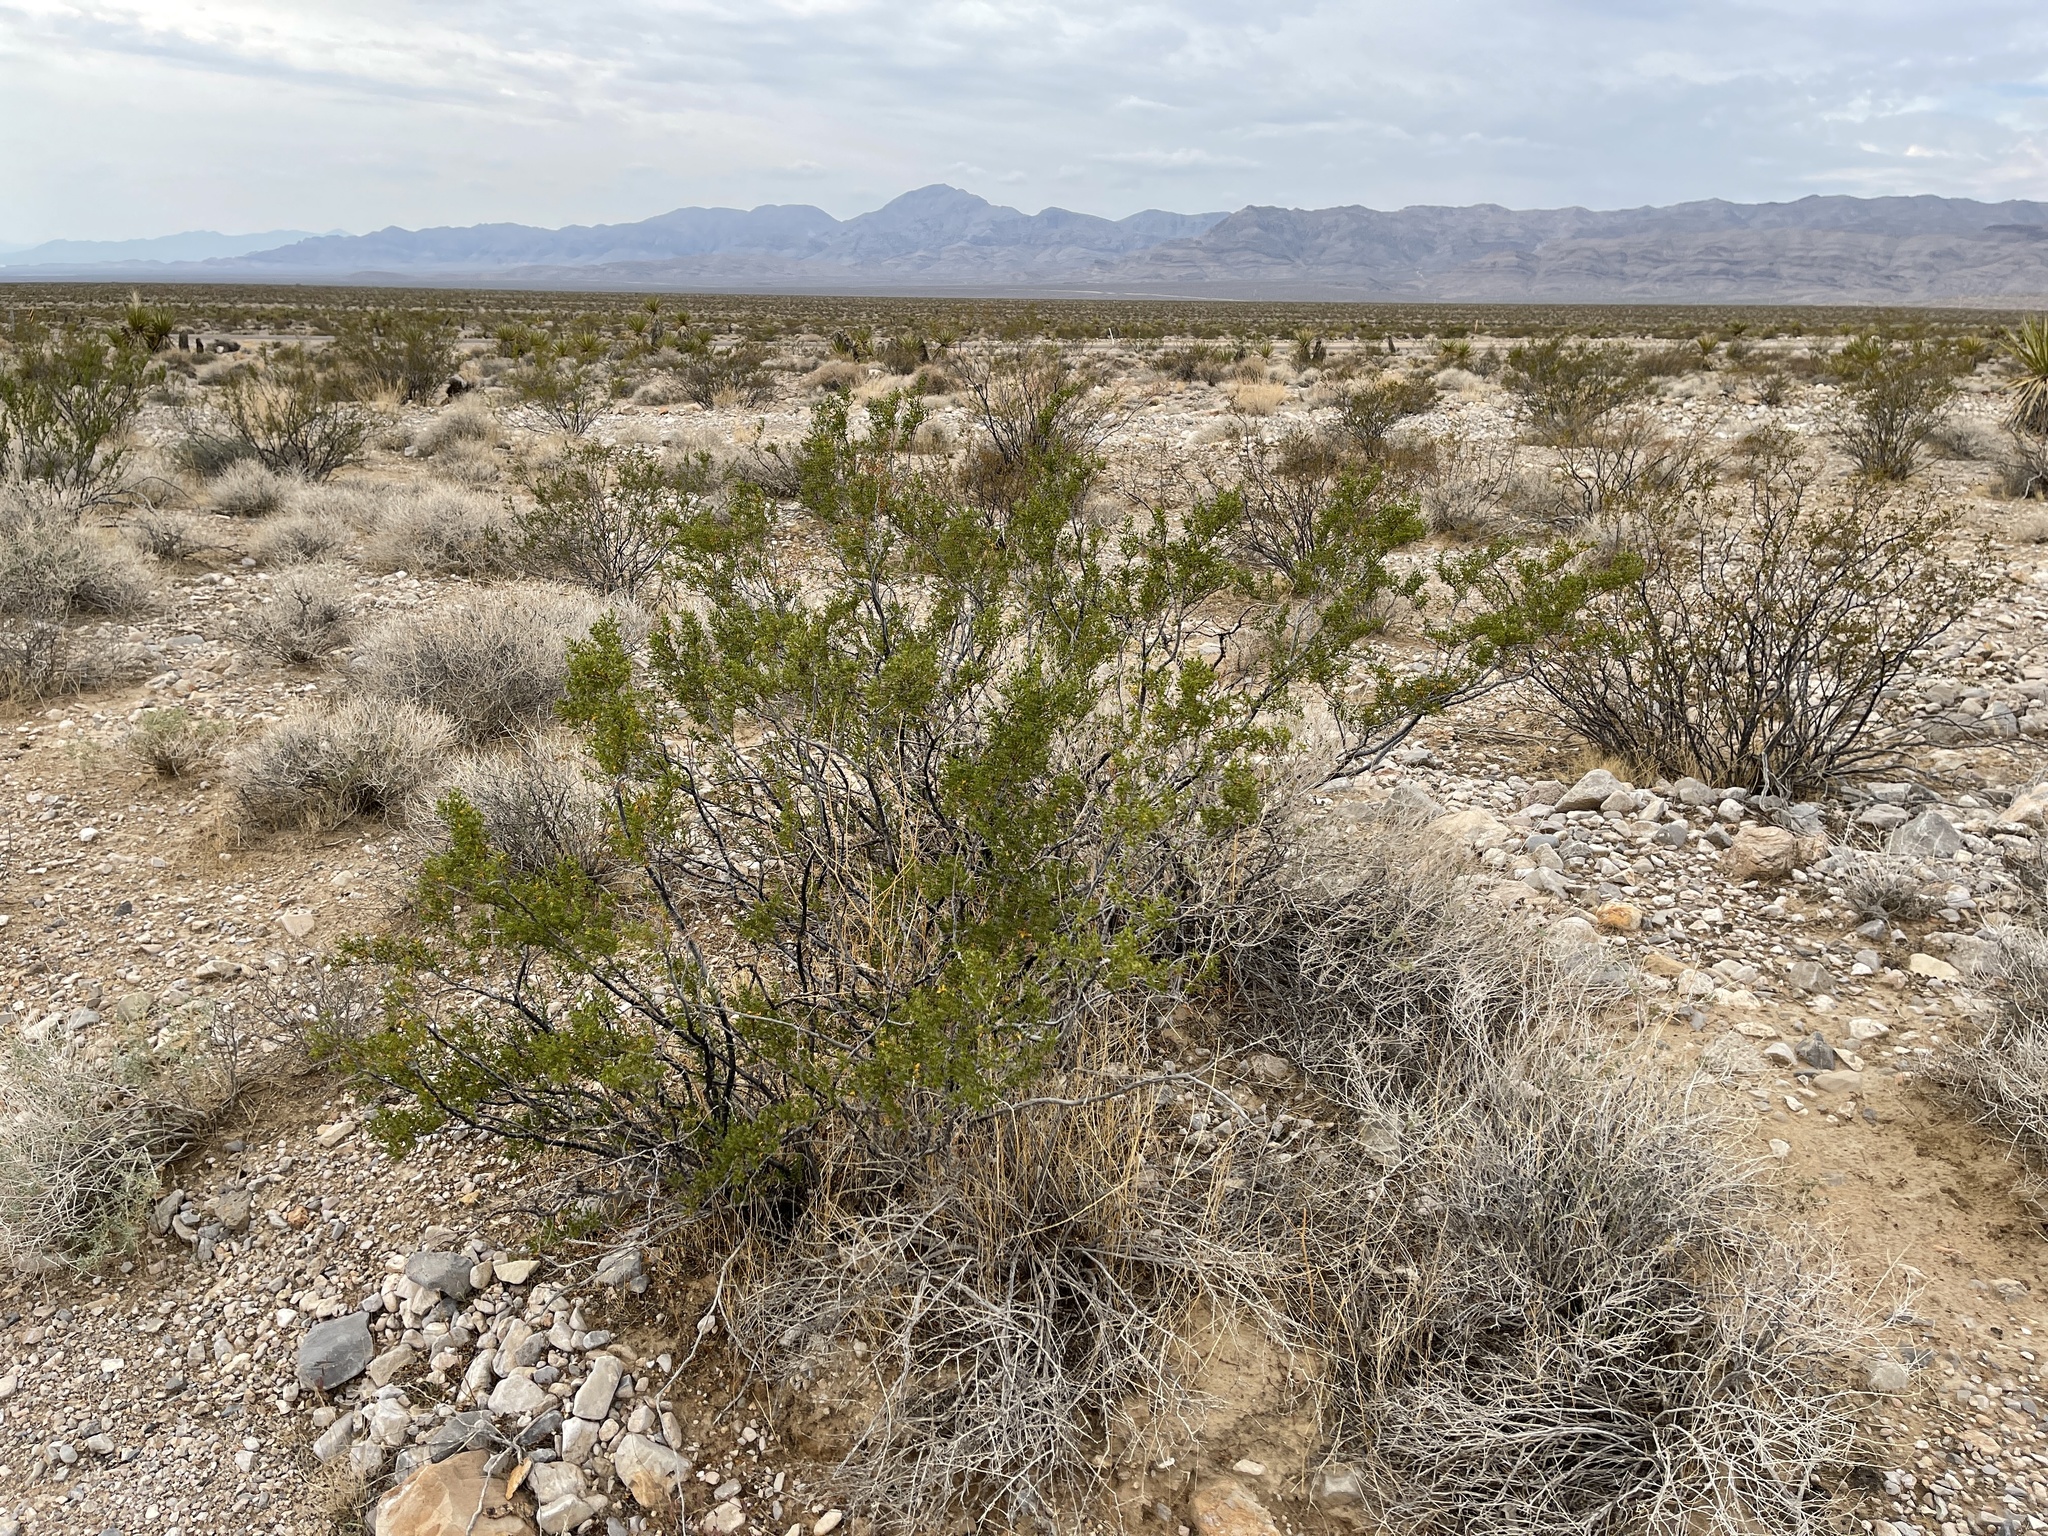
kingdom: Plantae
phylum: Tracheophyta
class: Magnoliopsida
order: Zygophyllales
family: Zygophyllaceae
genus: Larrea
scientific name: Larrea tridentata
